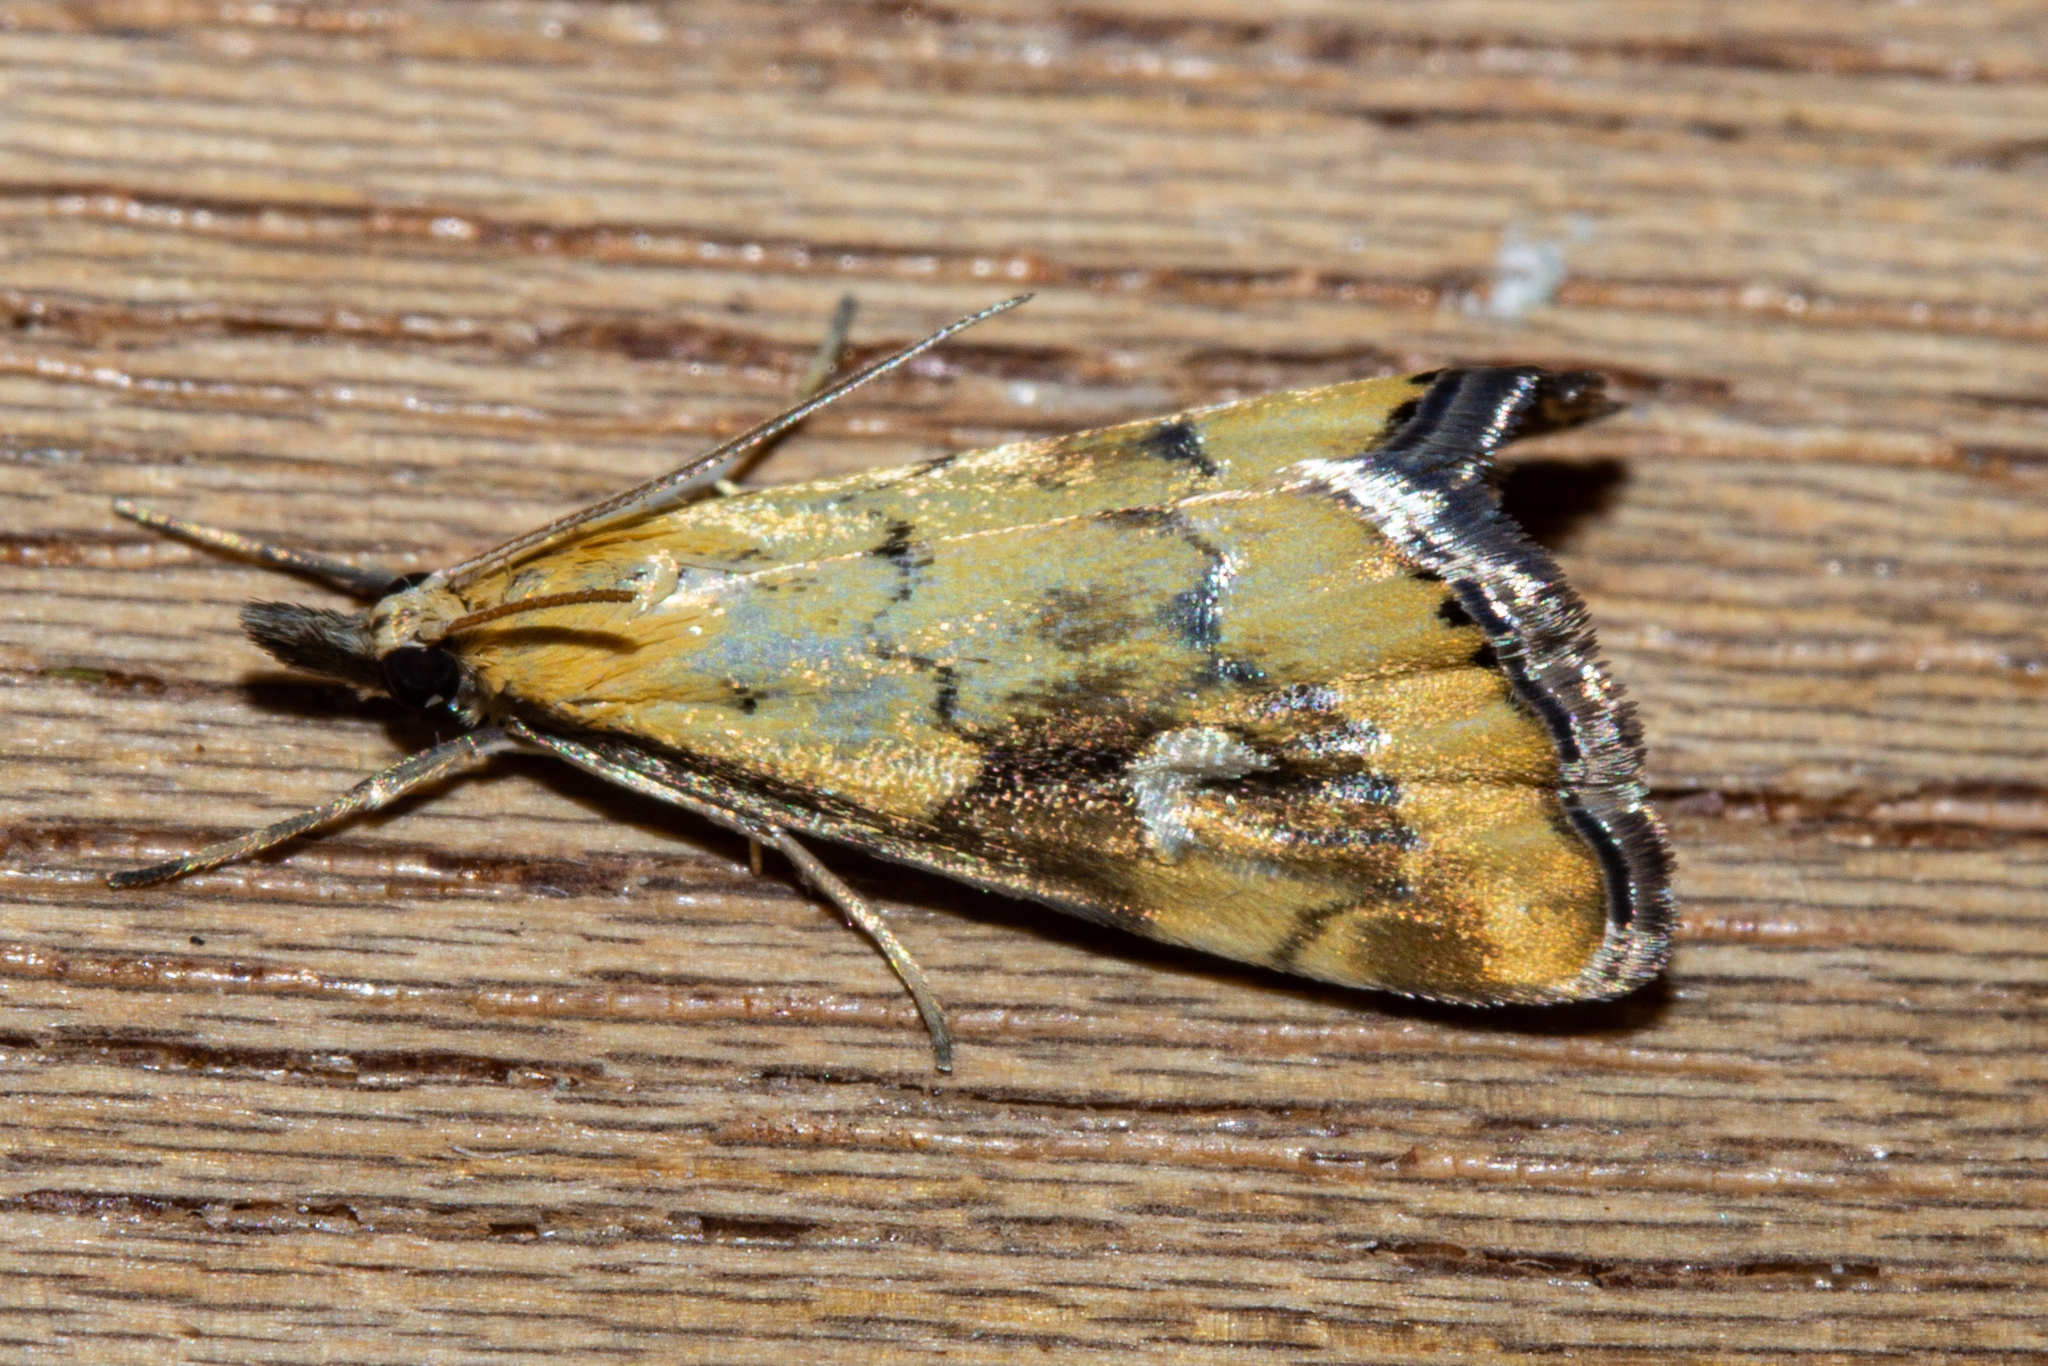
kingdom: Animalia
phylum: Arthropoda
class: Insecta
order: Lepidoptera
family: Crambidae
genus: Glaucocharis
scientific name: Glaucocharis lepidella
